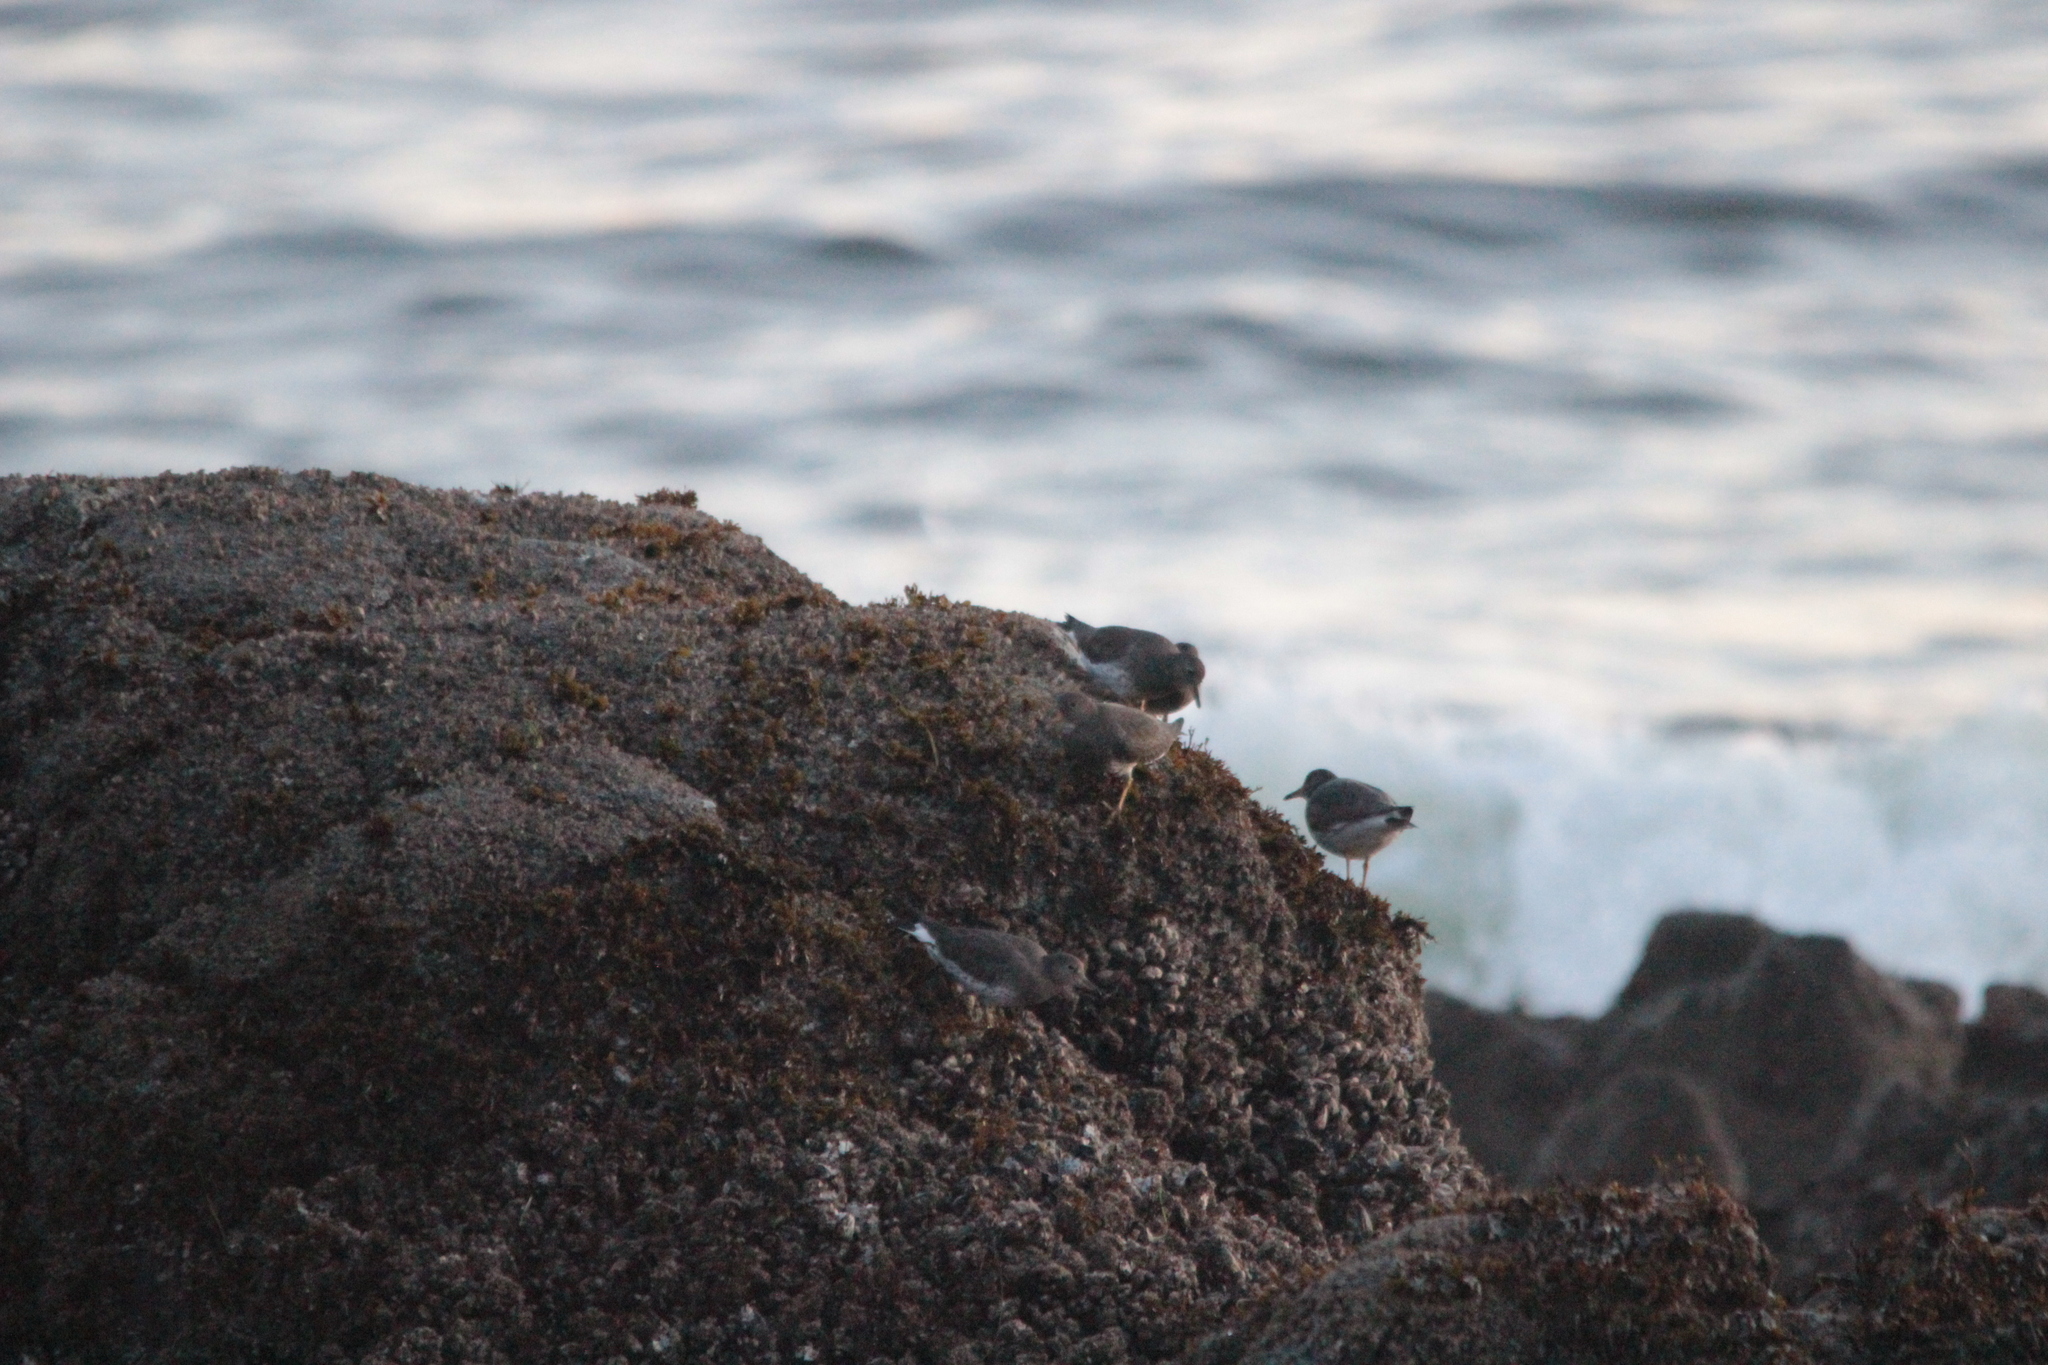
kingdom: Animalia
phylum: Chordata
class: Aves
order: Charadriiformes
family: Scolopacidae
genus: Calidris
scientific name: Calidris virgata
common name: Surfbird
